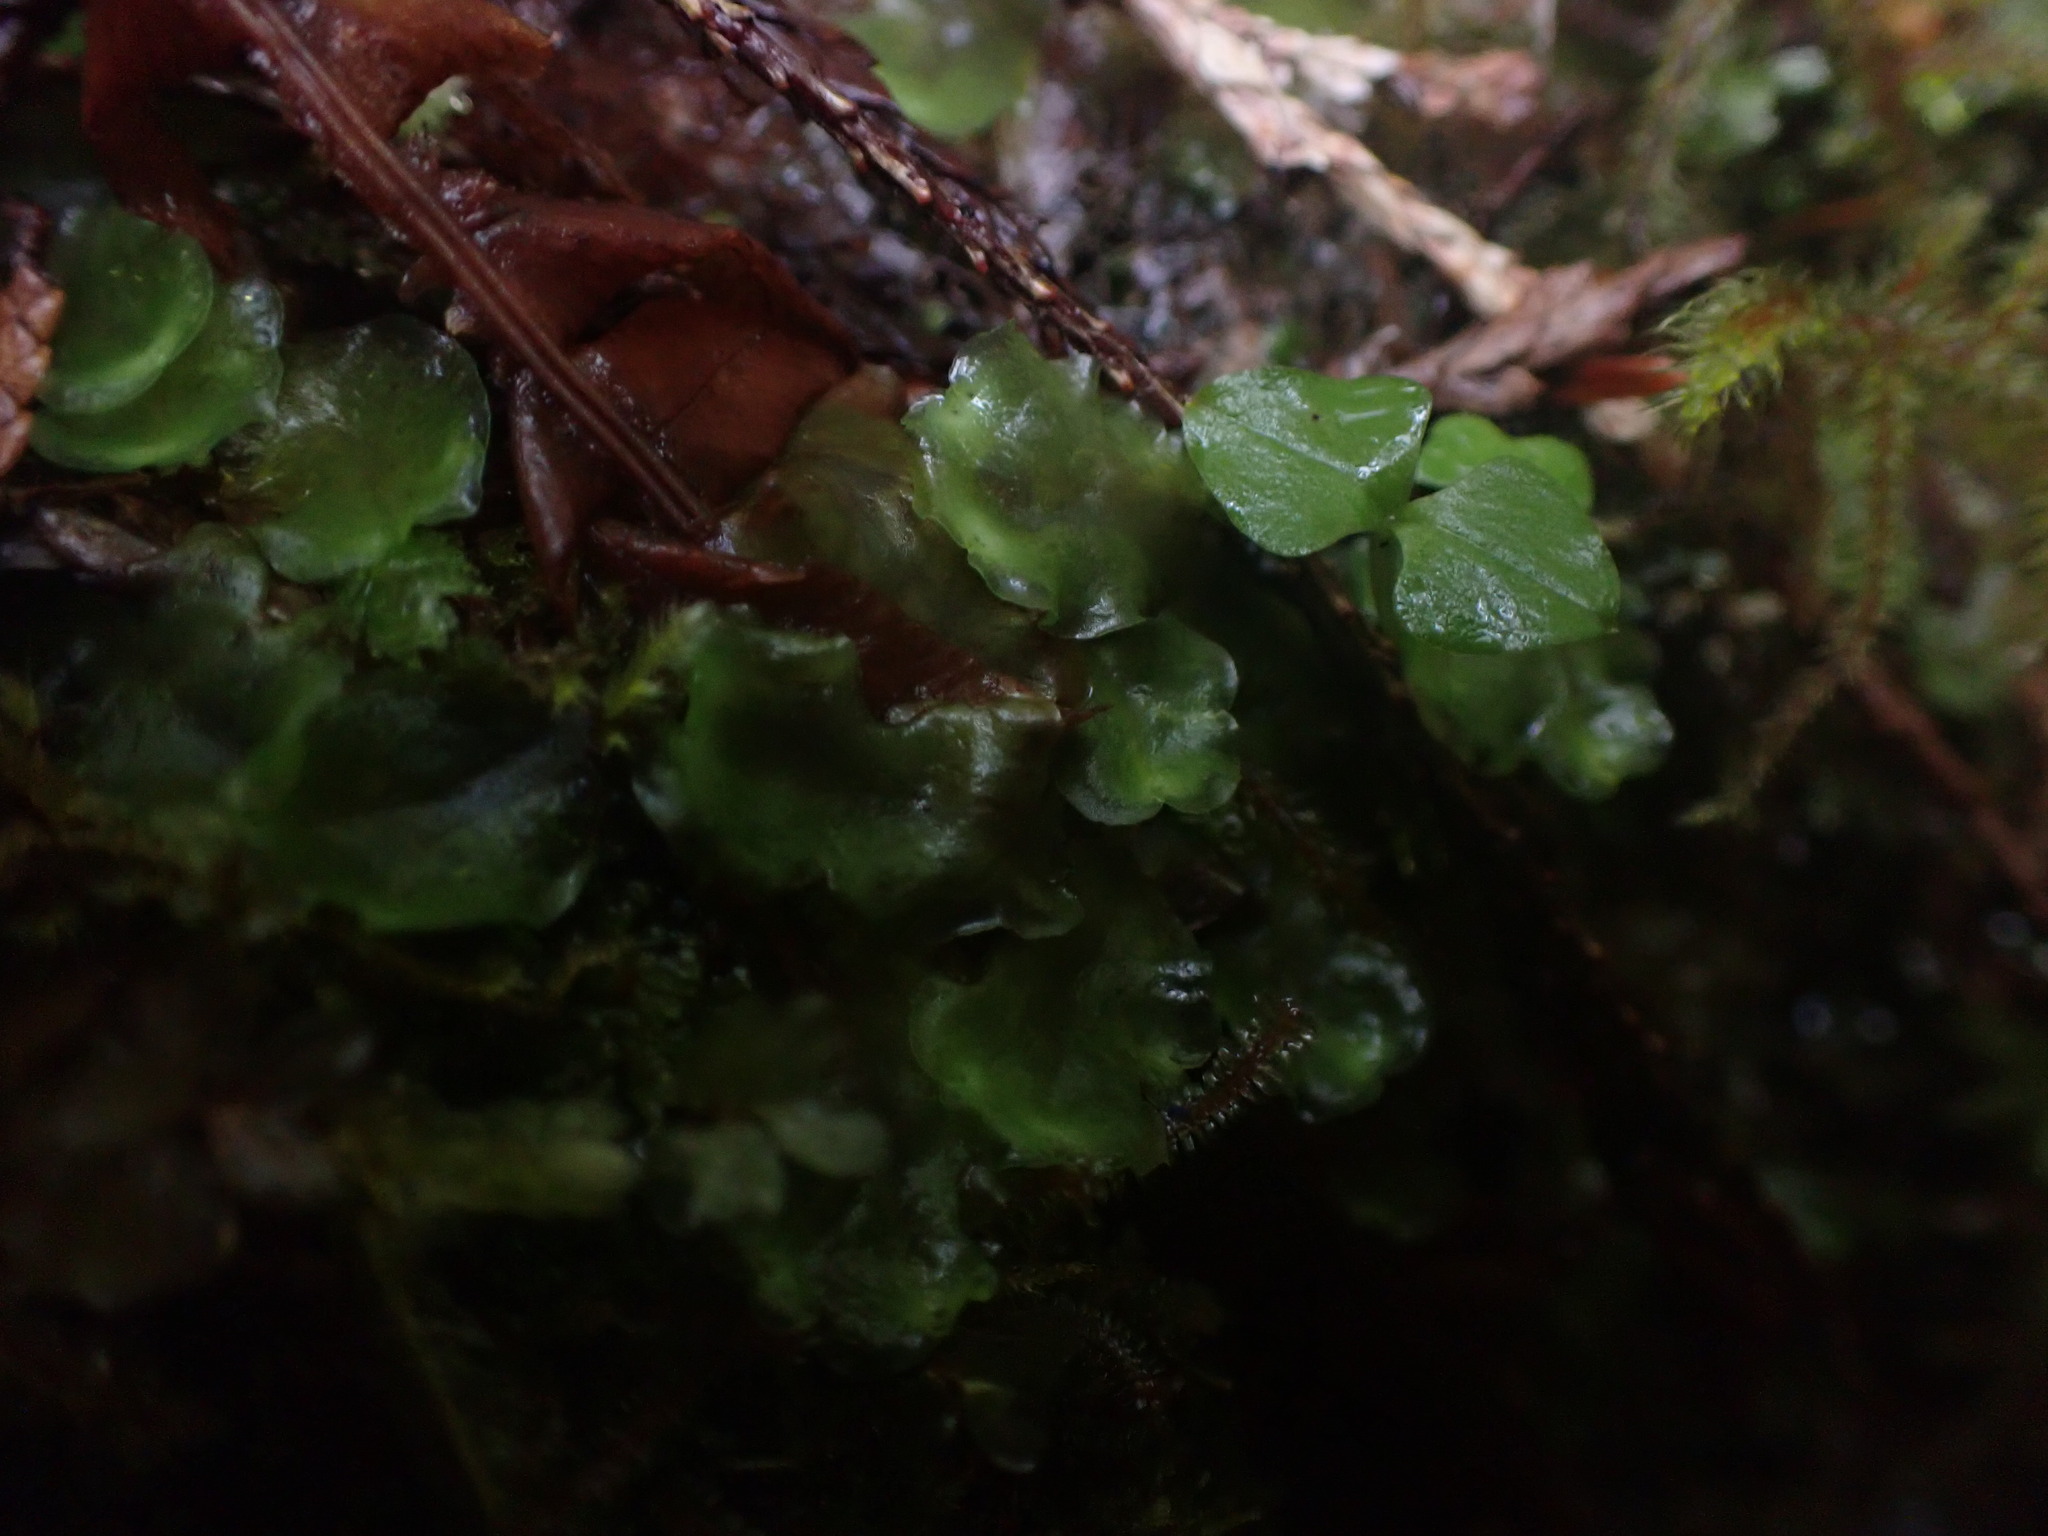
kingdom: Plantae
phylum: Marchantiophyta
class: Jungermanniopsida
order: Pelliales
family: Pelliaceae
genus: Pellia
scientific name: Pellia neesiana
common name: Nees  pellia
